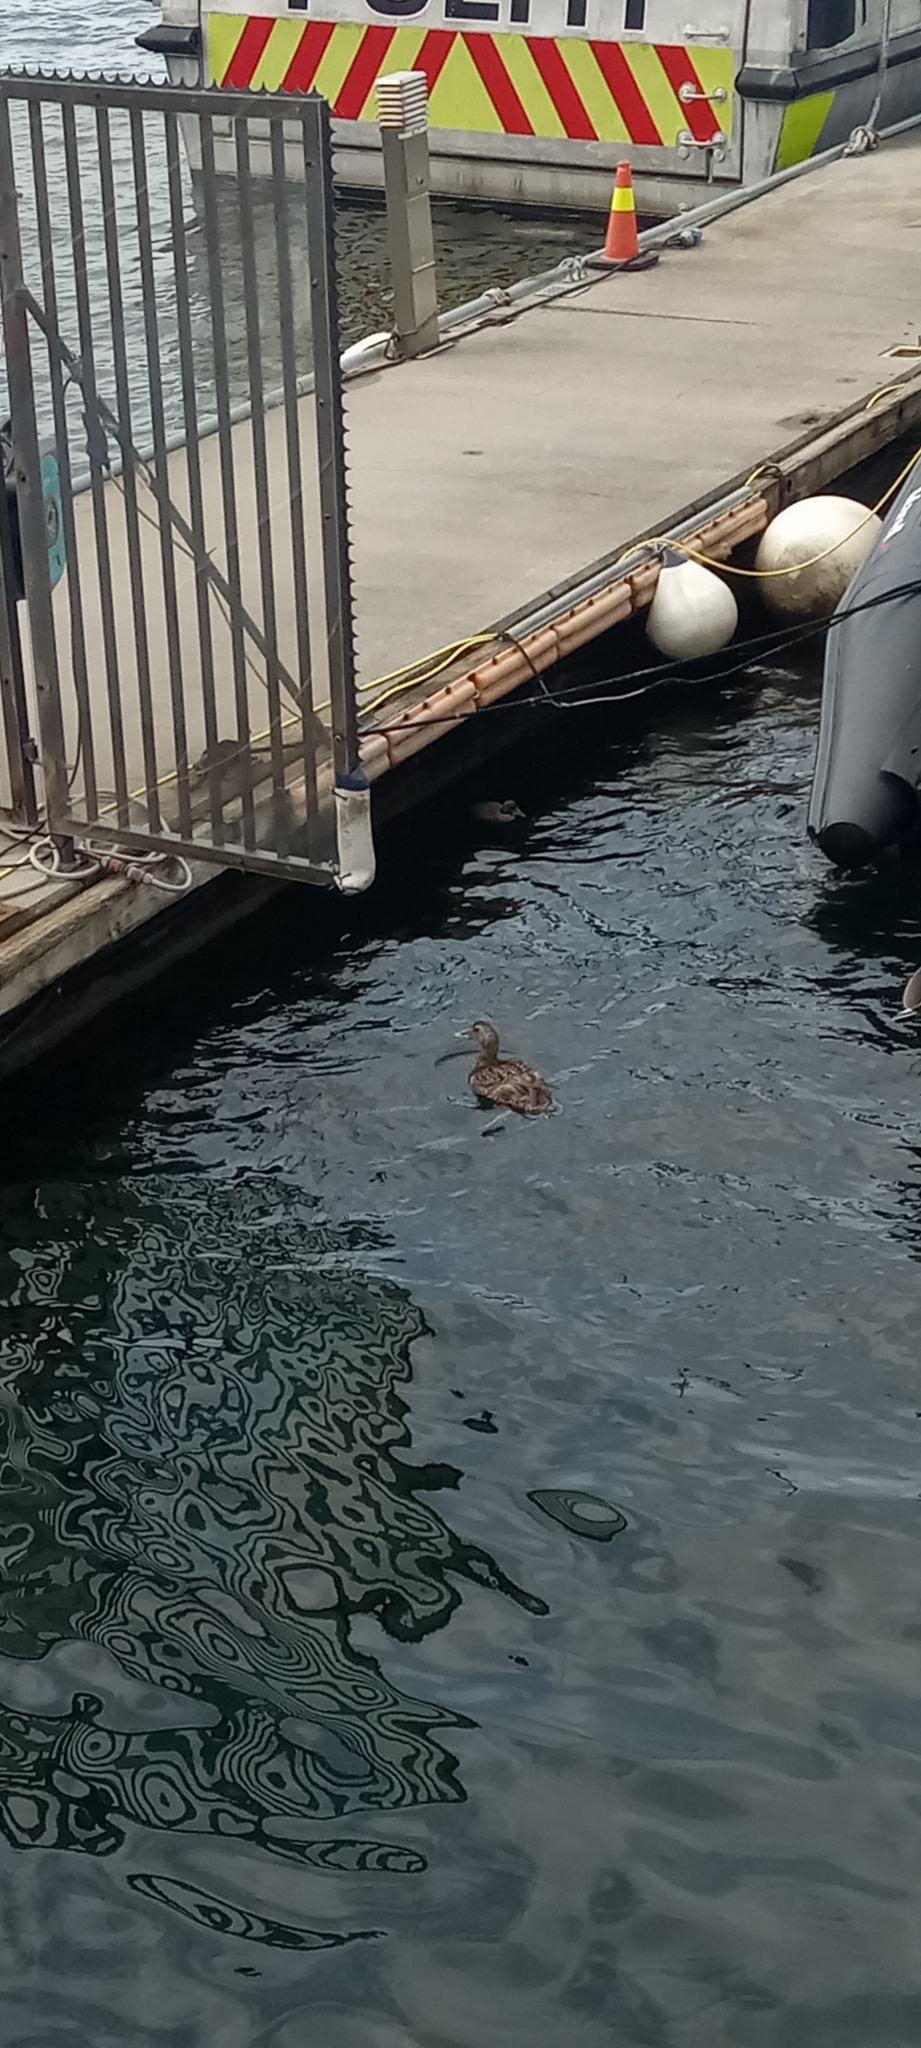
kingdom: Animalia
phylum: Chordata
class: Aves
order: Anseriformes
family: Anatidae
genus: Somateria
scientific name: Somateria mollissima
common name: Common eider
